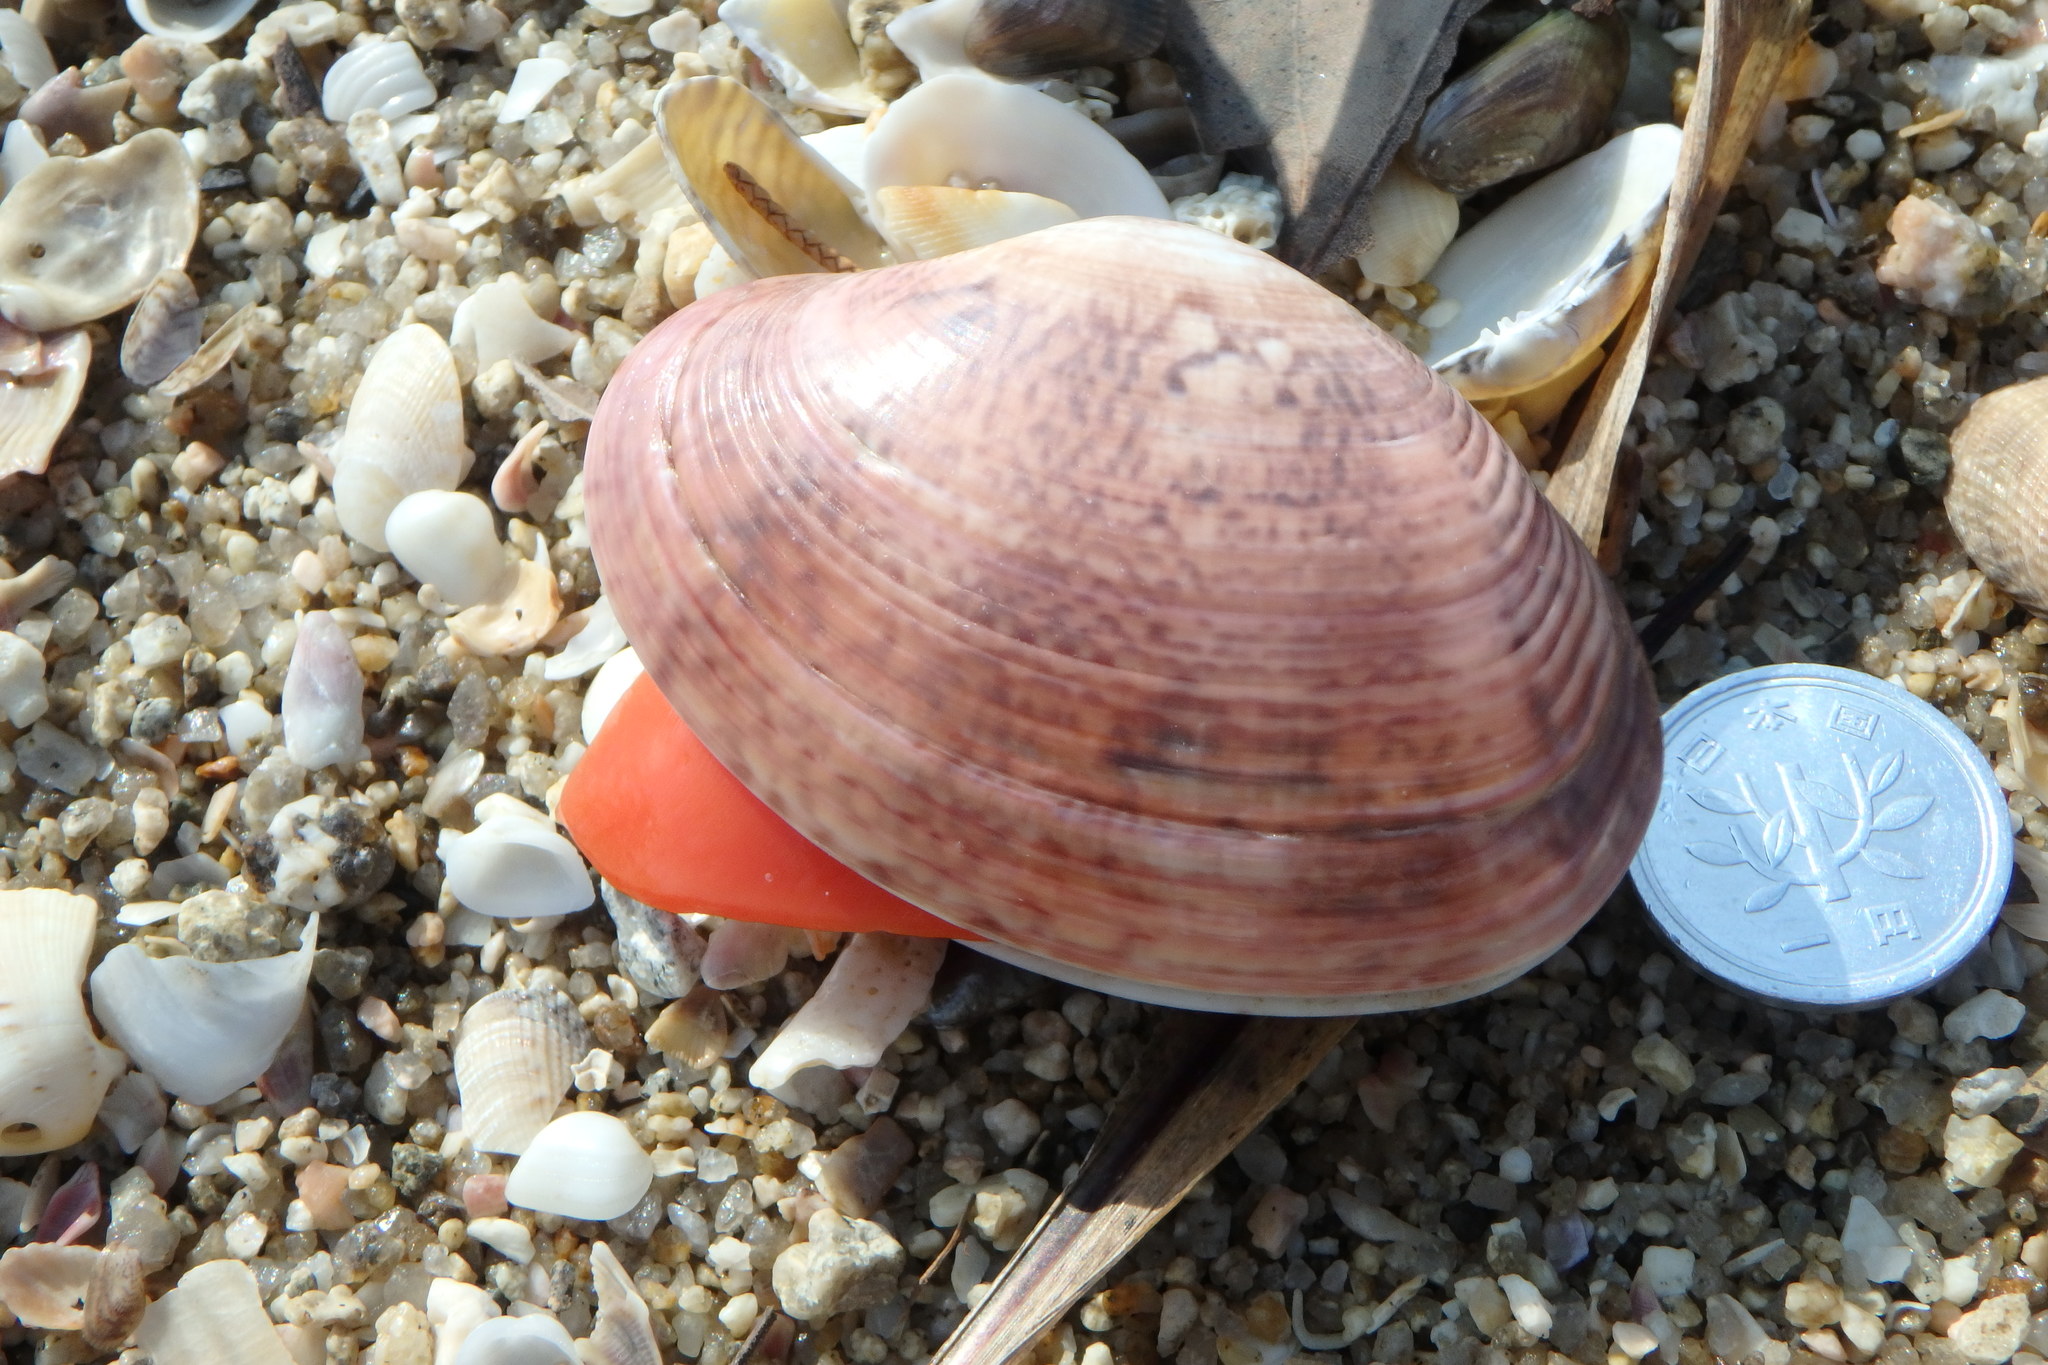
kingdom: Animalia
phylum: Mollusca
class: Bivalvia
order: Venerida
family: Veneridae
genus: Paphia
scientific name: Paphia vernicosa
